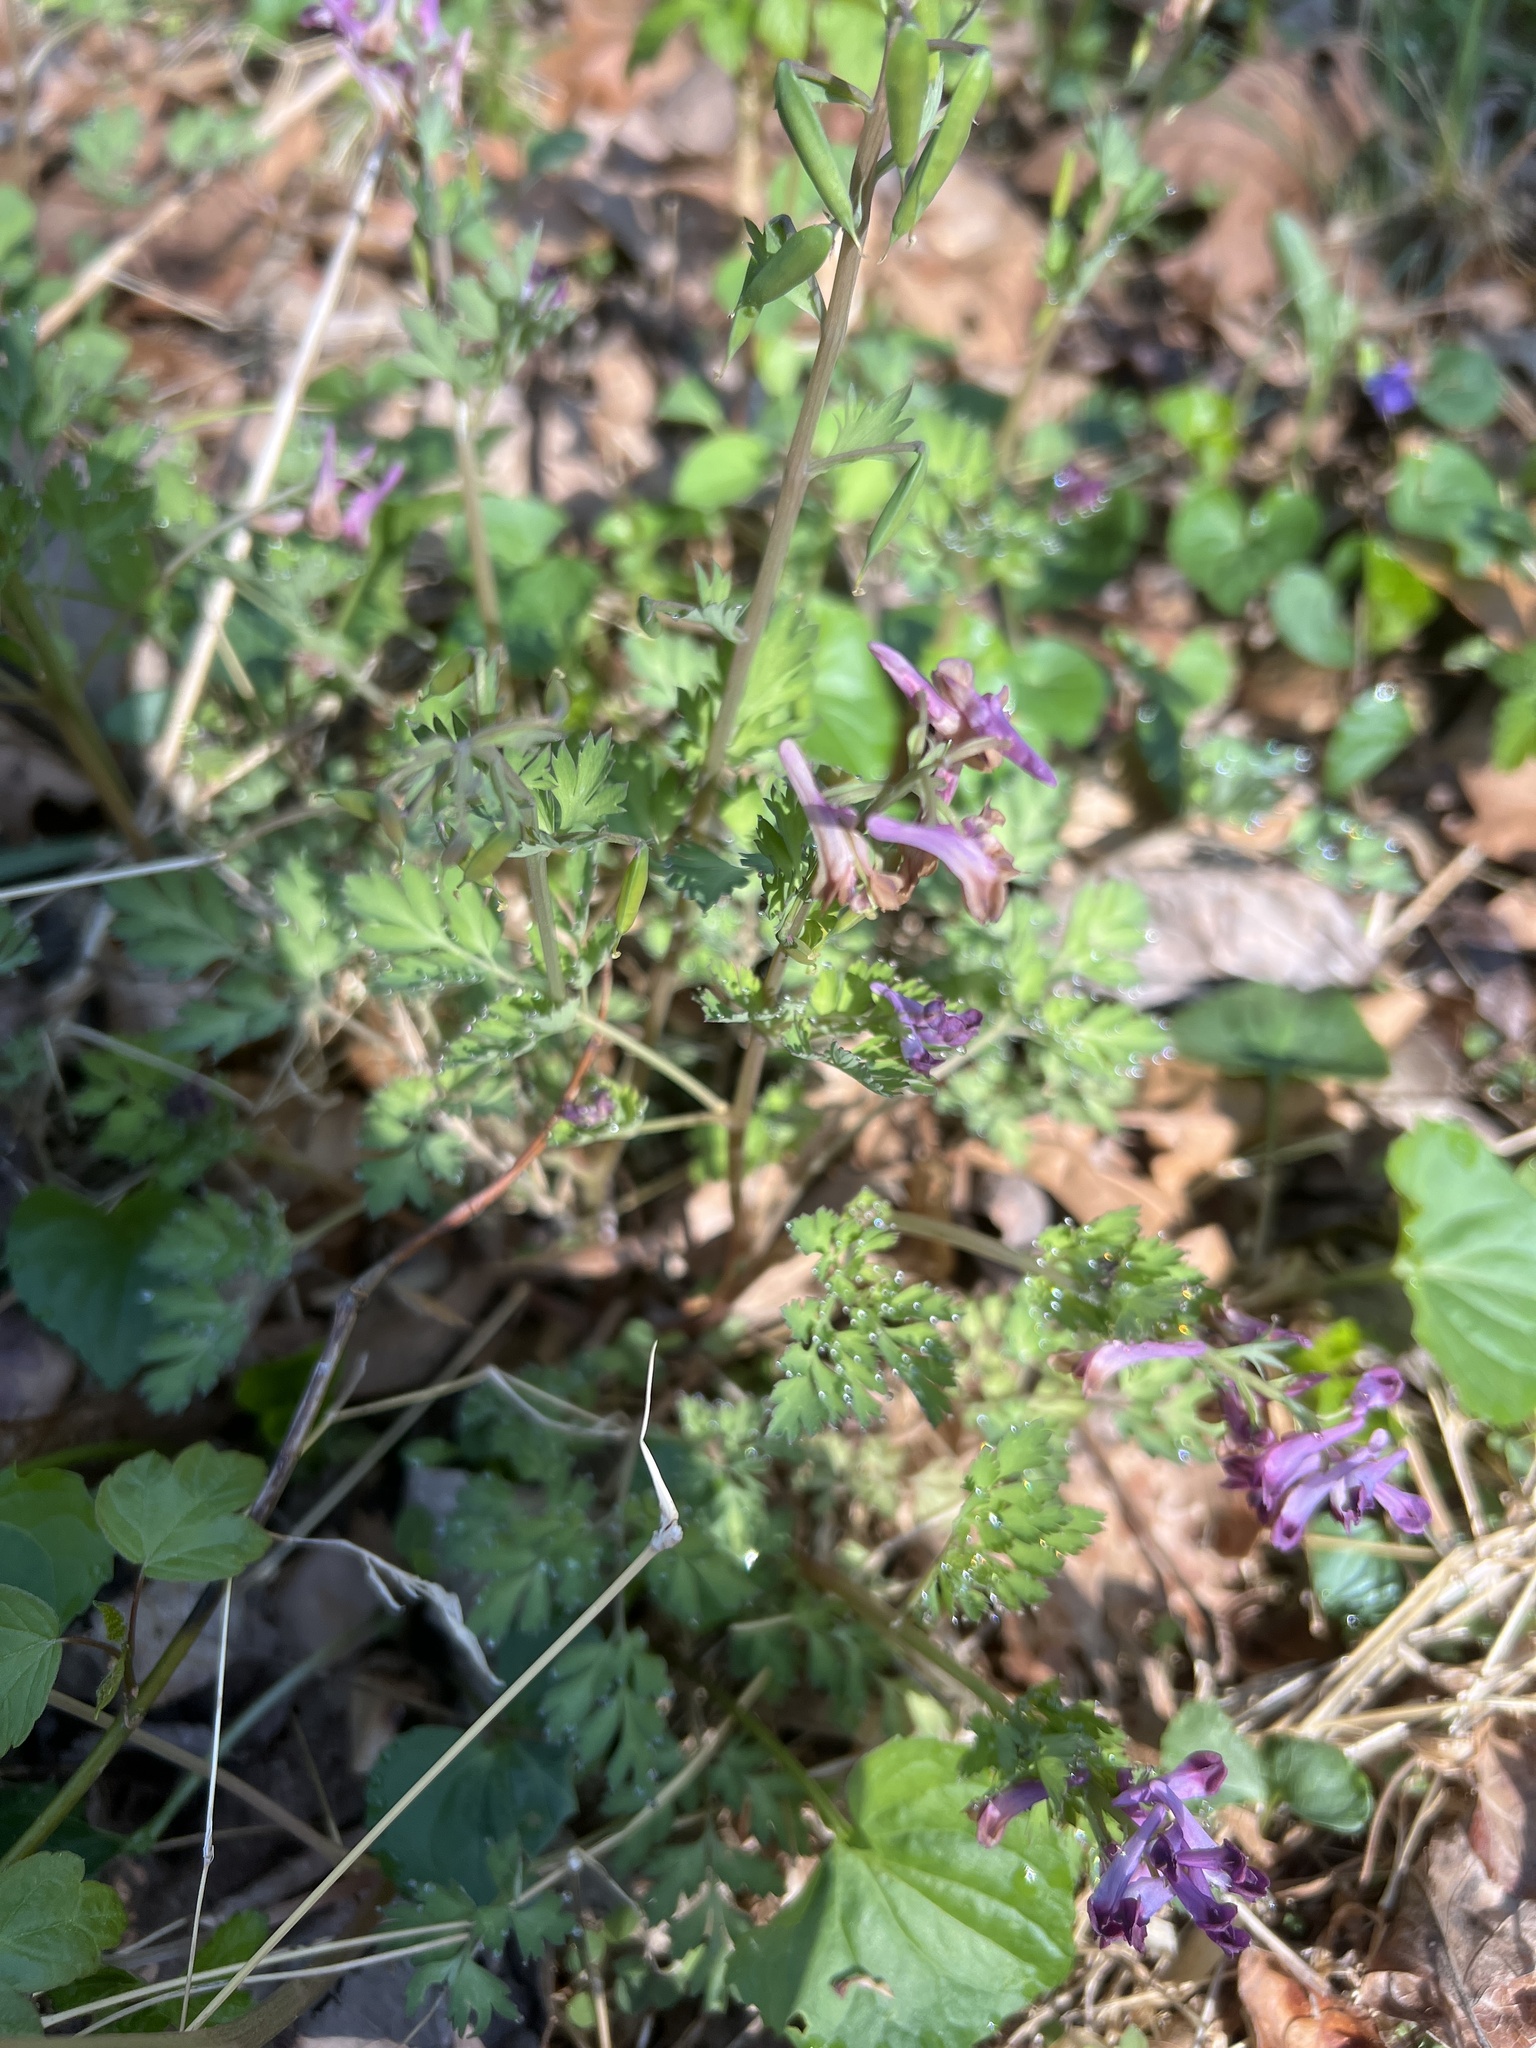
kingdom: Plantae
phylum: Tracheophyta
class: Magnoliopsida
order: Ranunculales
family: Papaveraceae
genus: Corydalis
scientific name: Corydalis incisa
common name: Incised fumewort
